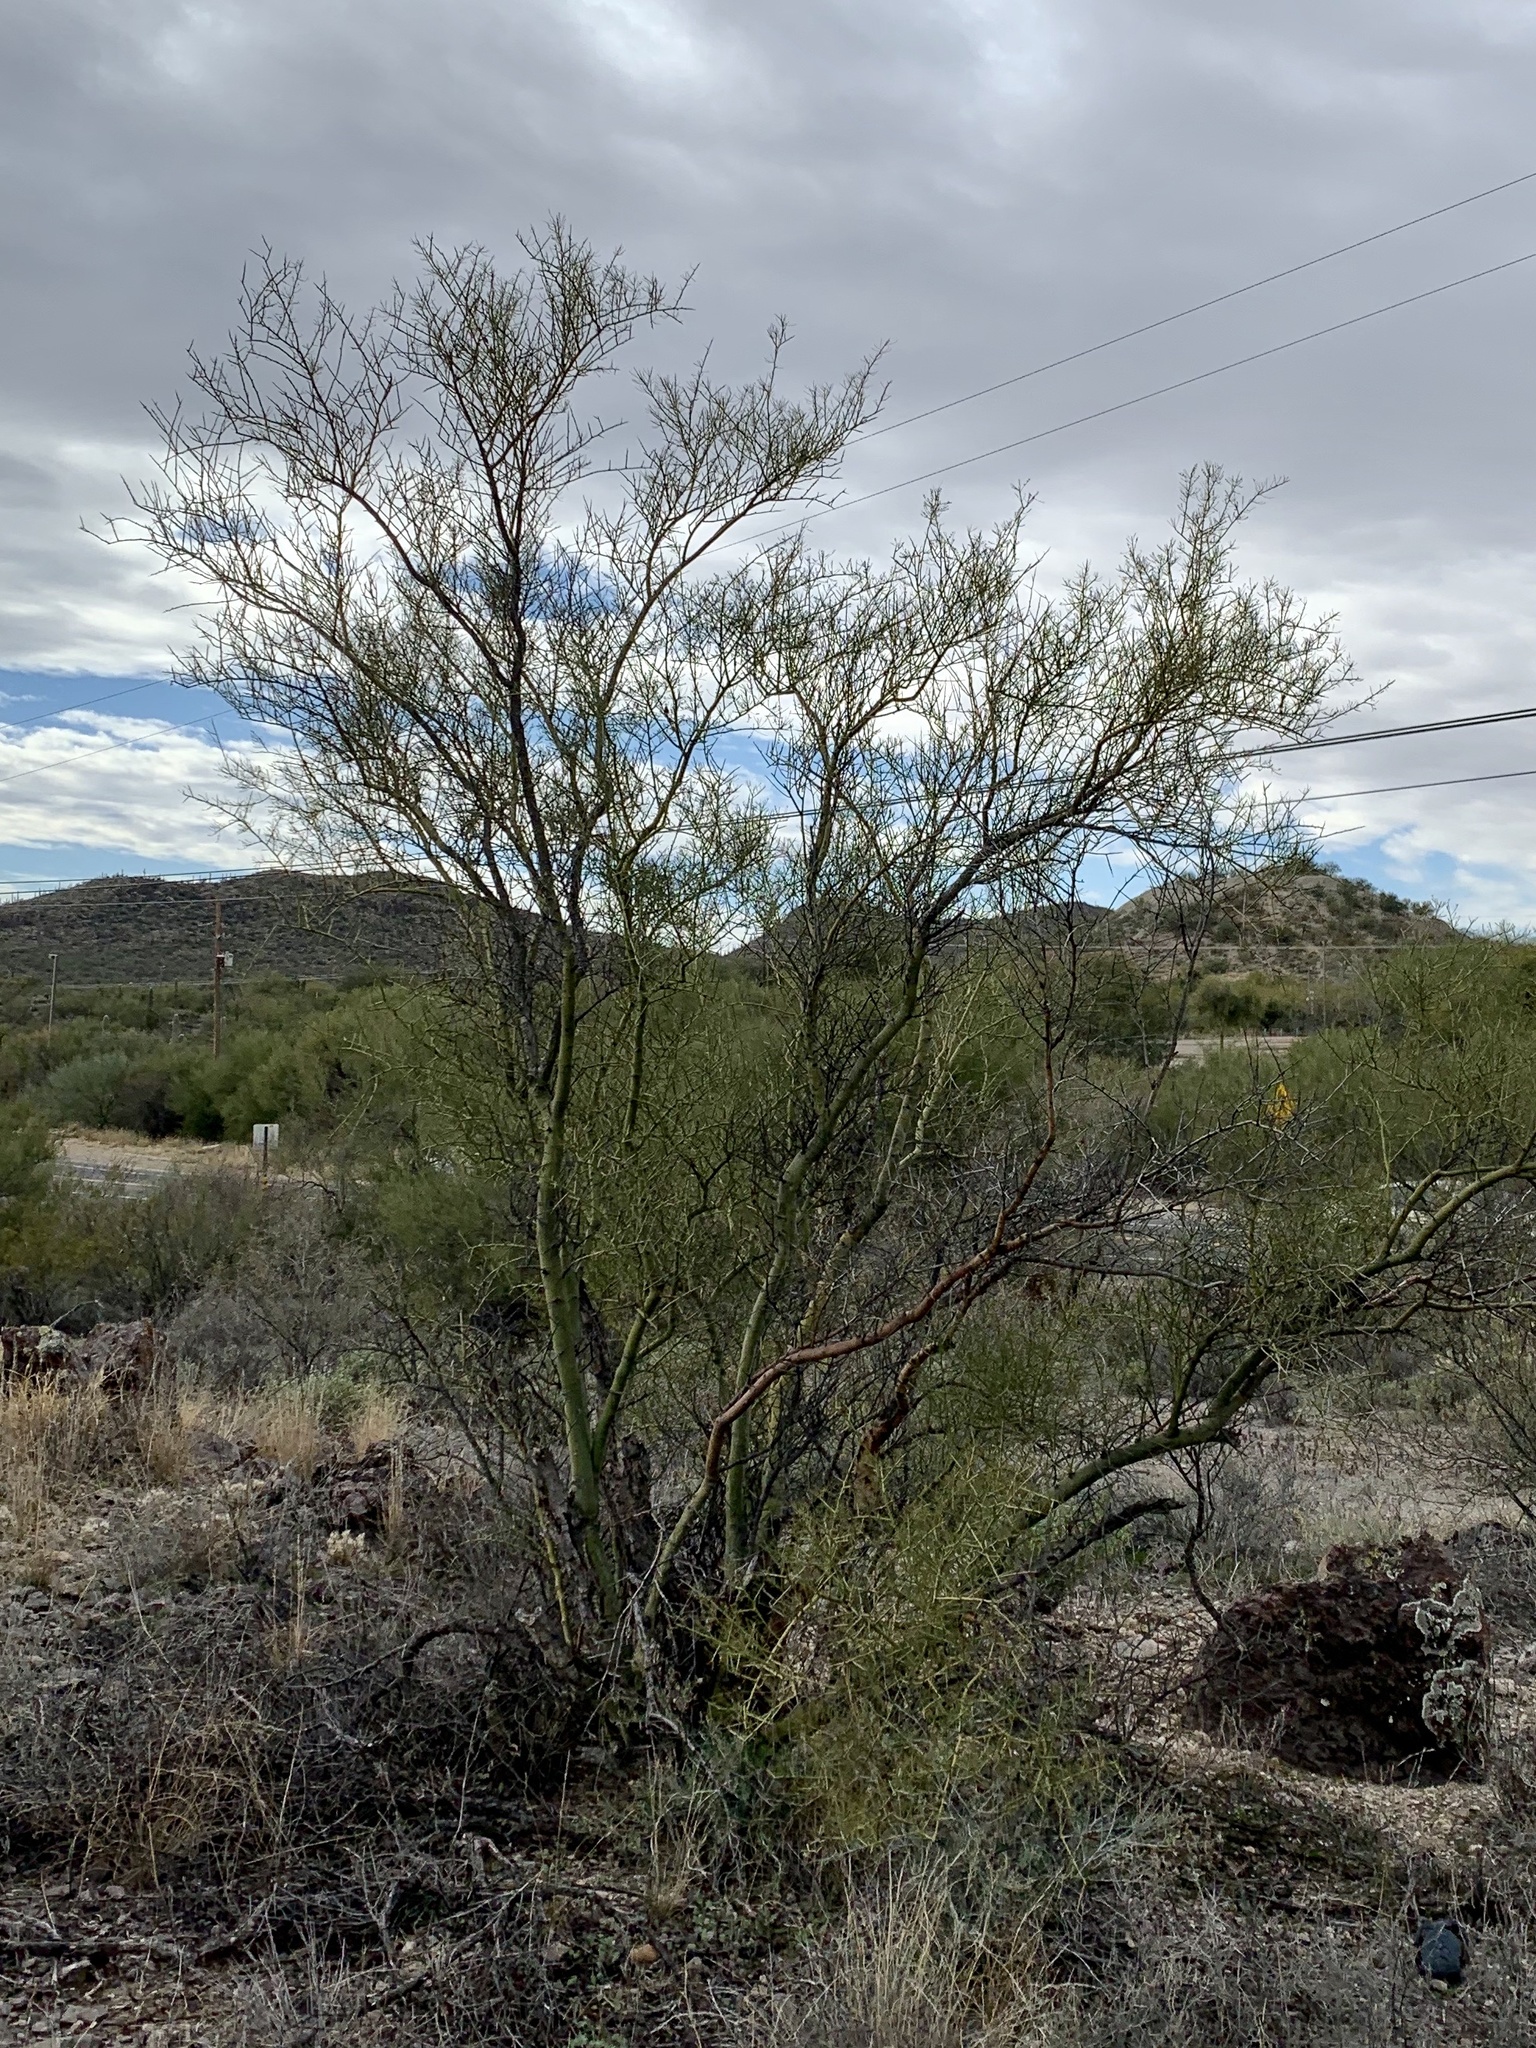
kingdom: Plantae
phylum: Tracheophyta
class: Magnoliopsida
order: Fabales
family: Fabaceae
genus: Parkinsonia
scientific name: Parkinsonia microphylla
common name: Yellow paloverde
